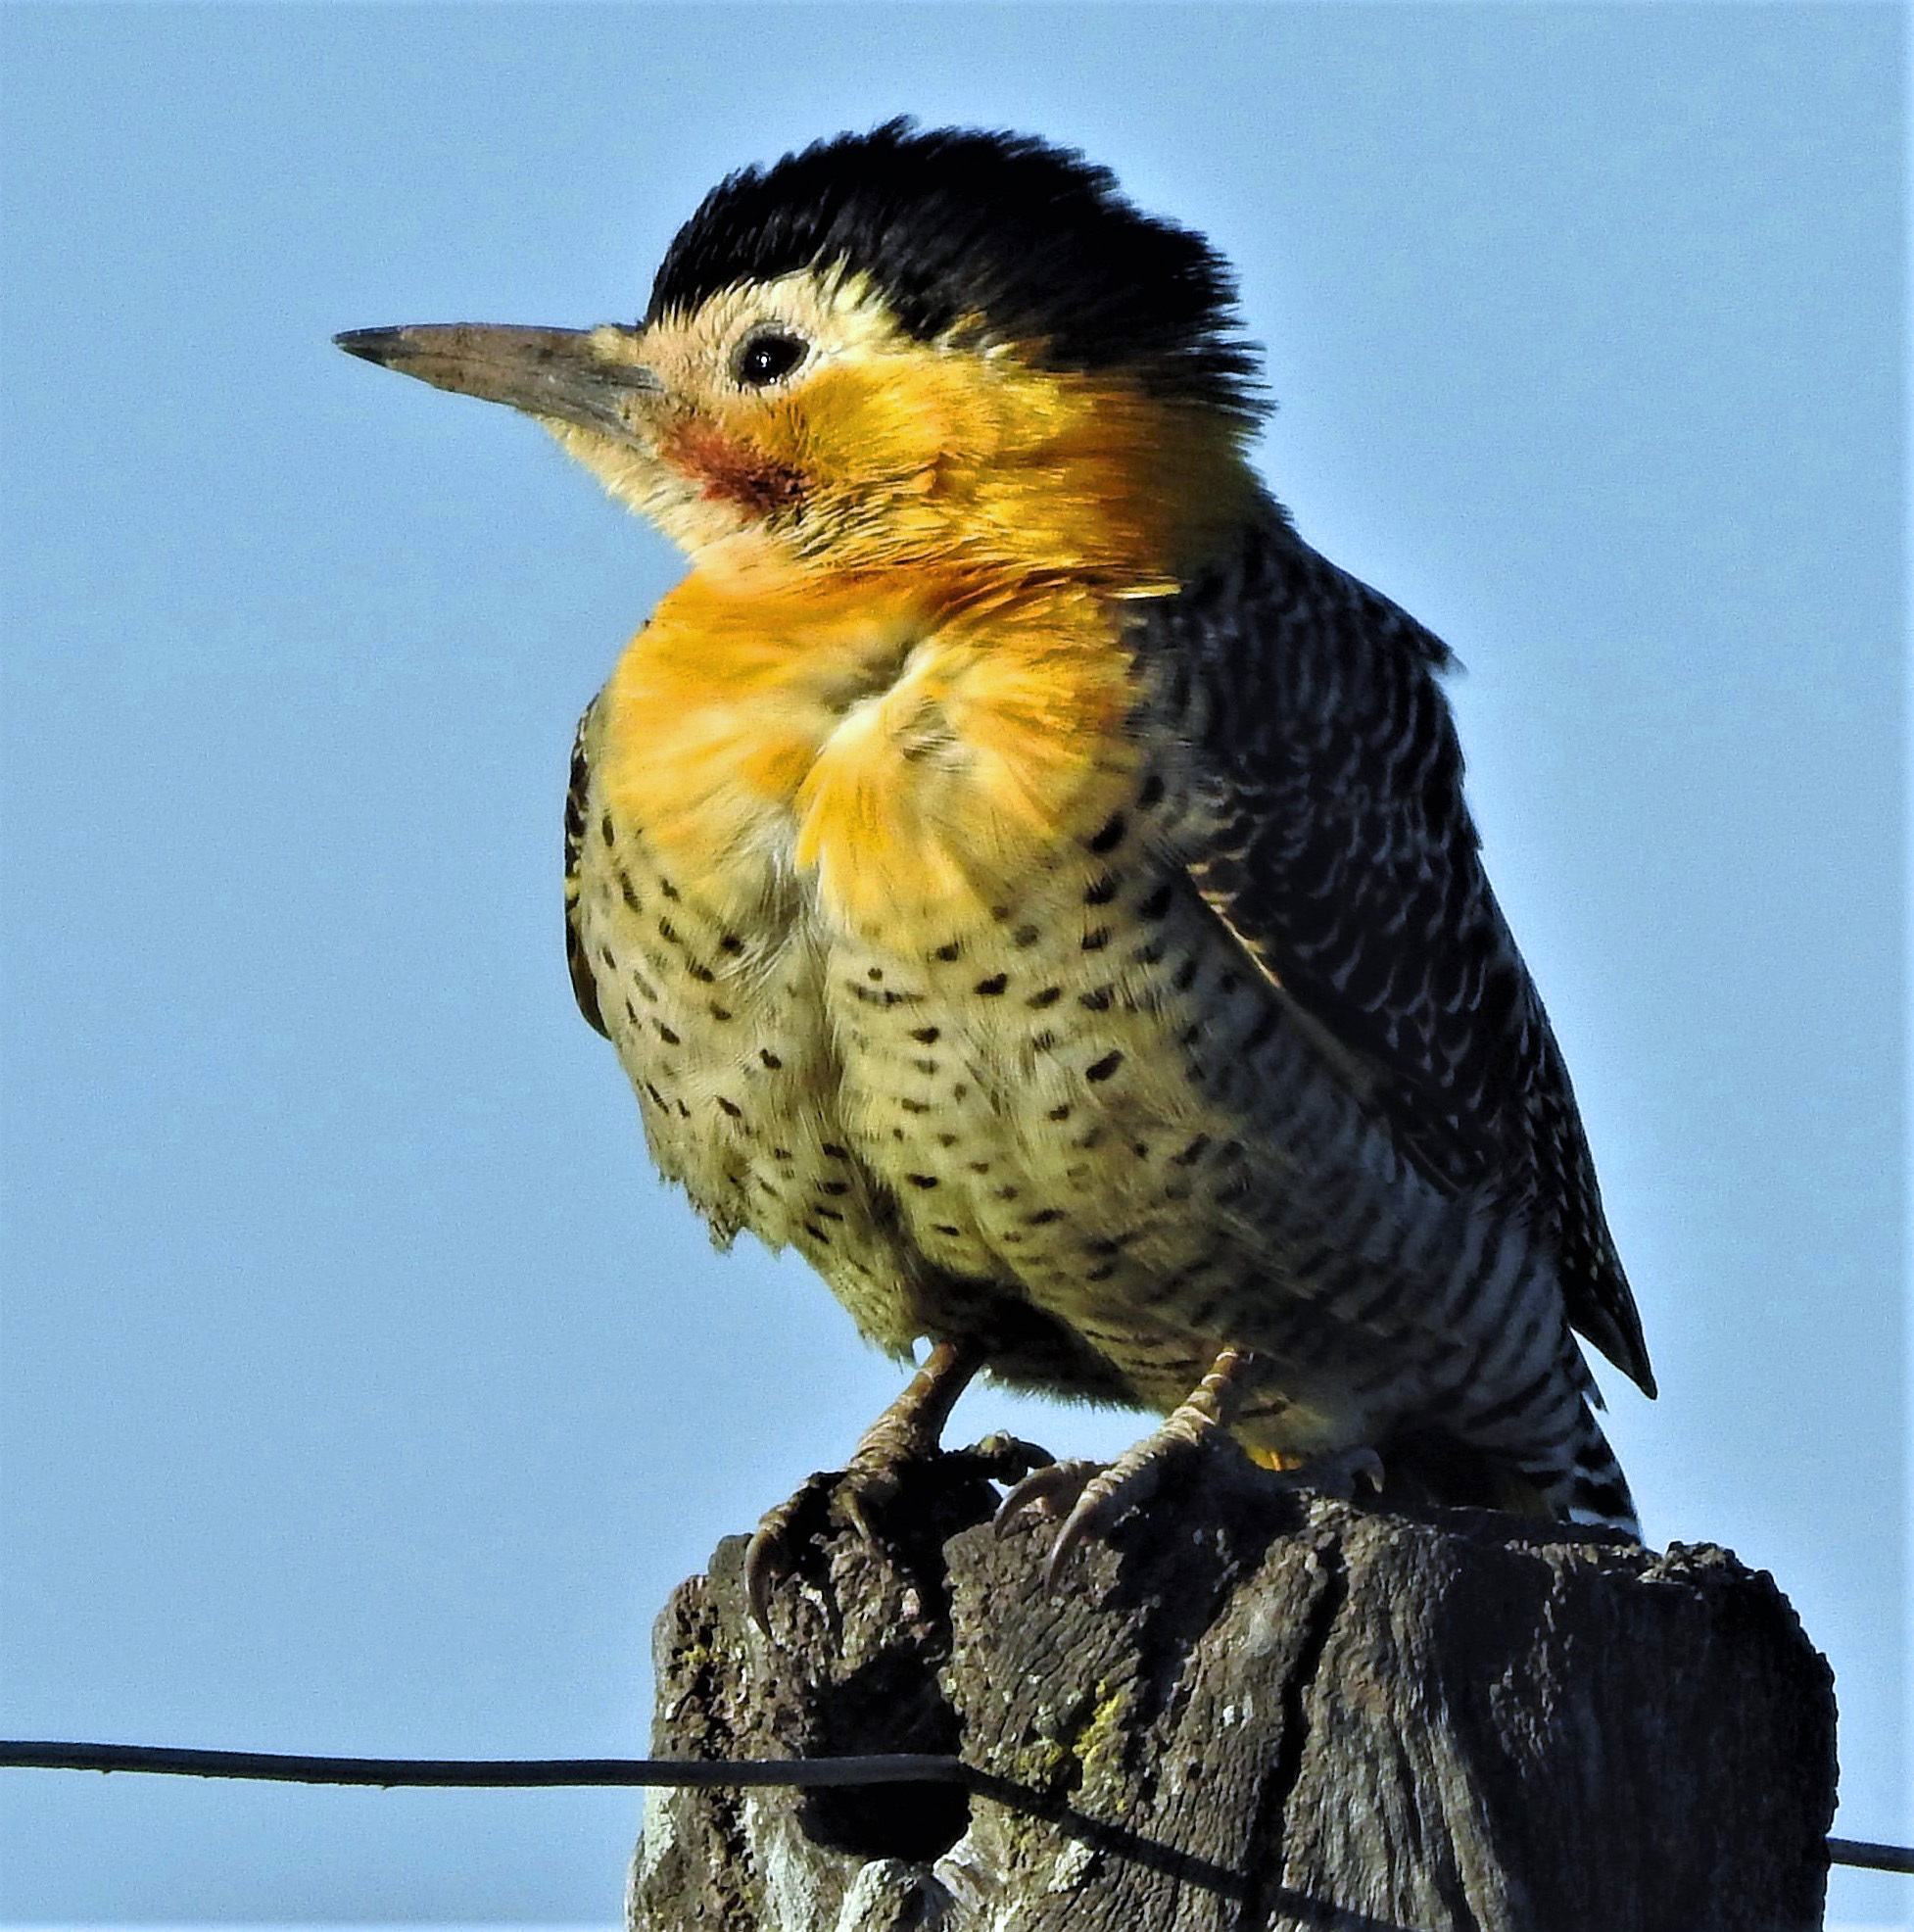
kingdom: Animalia
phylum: Chordata
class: Aves
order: Piciformes
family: Picidae
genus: Colaptes
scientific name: Colaptes campestris
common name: Campo flicker
